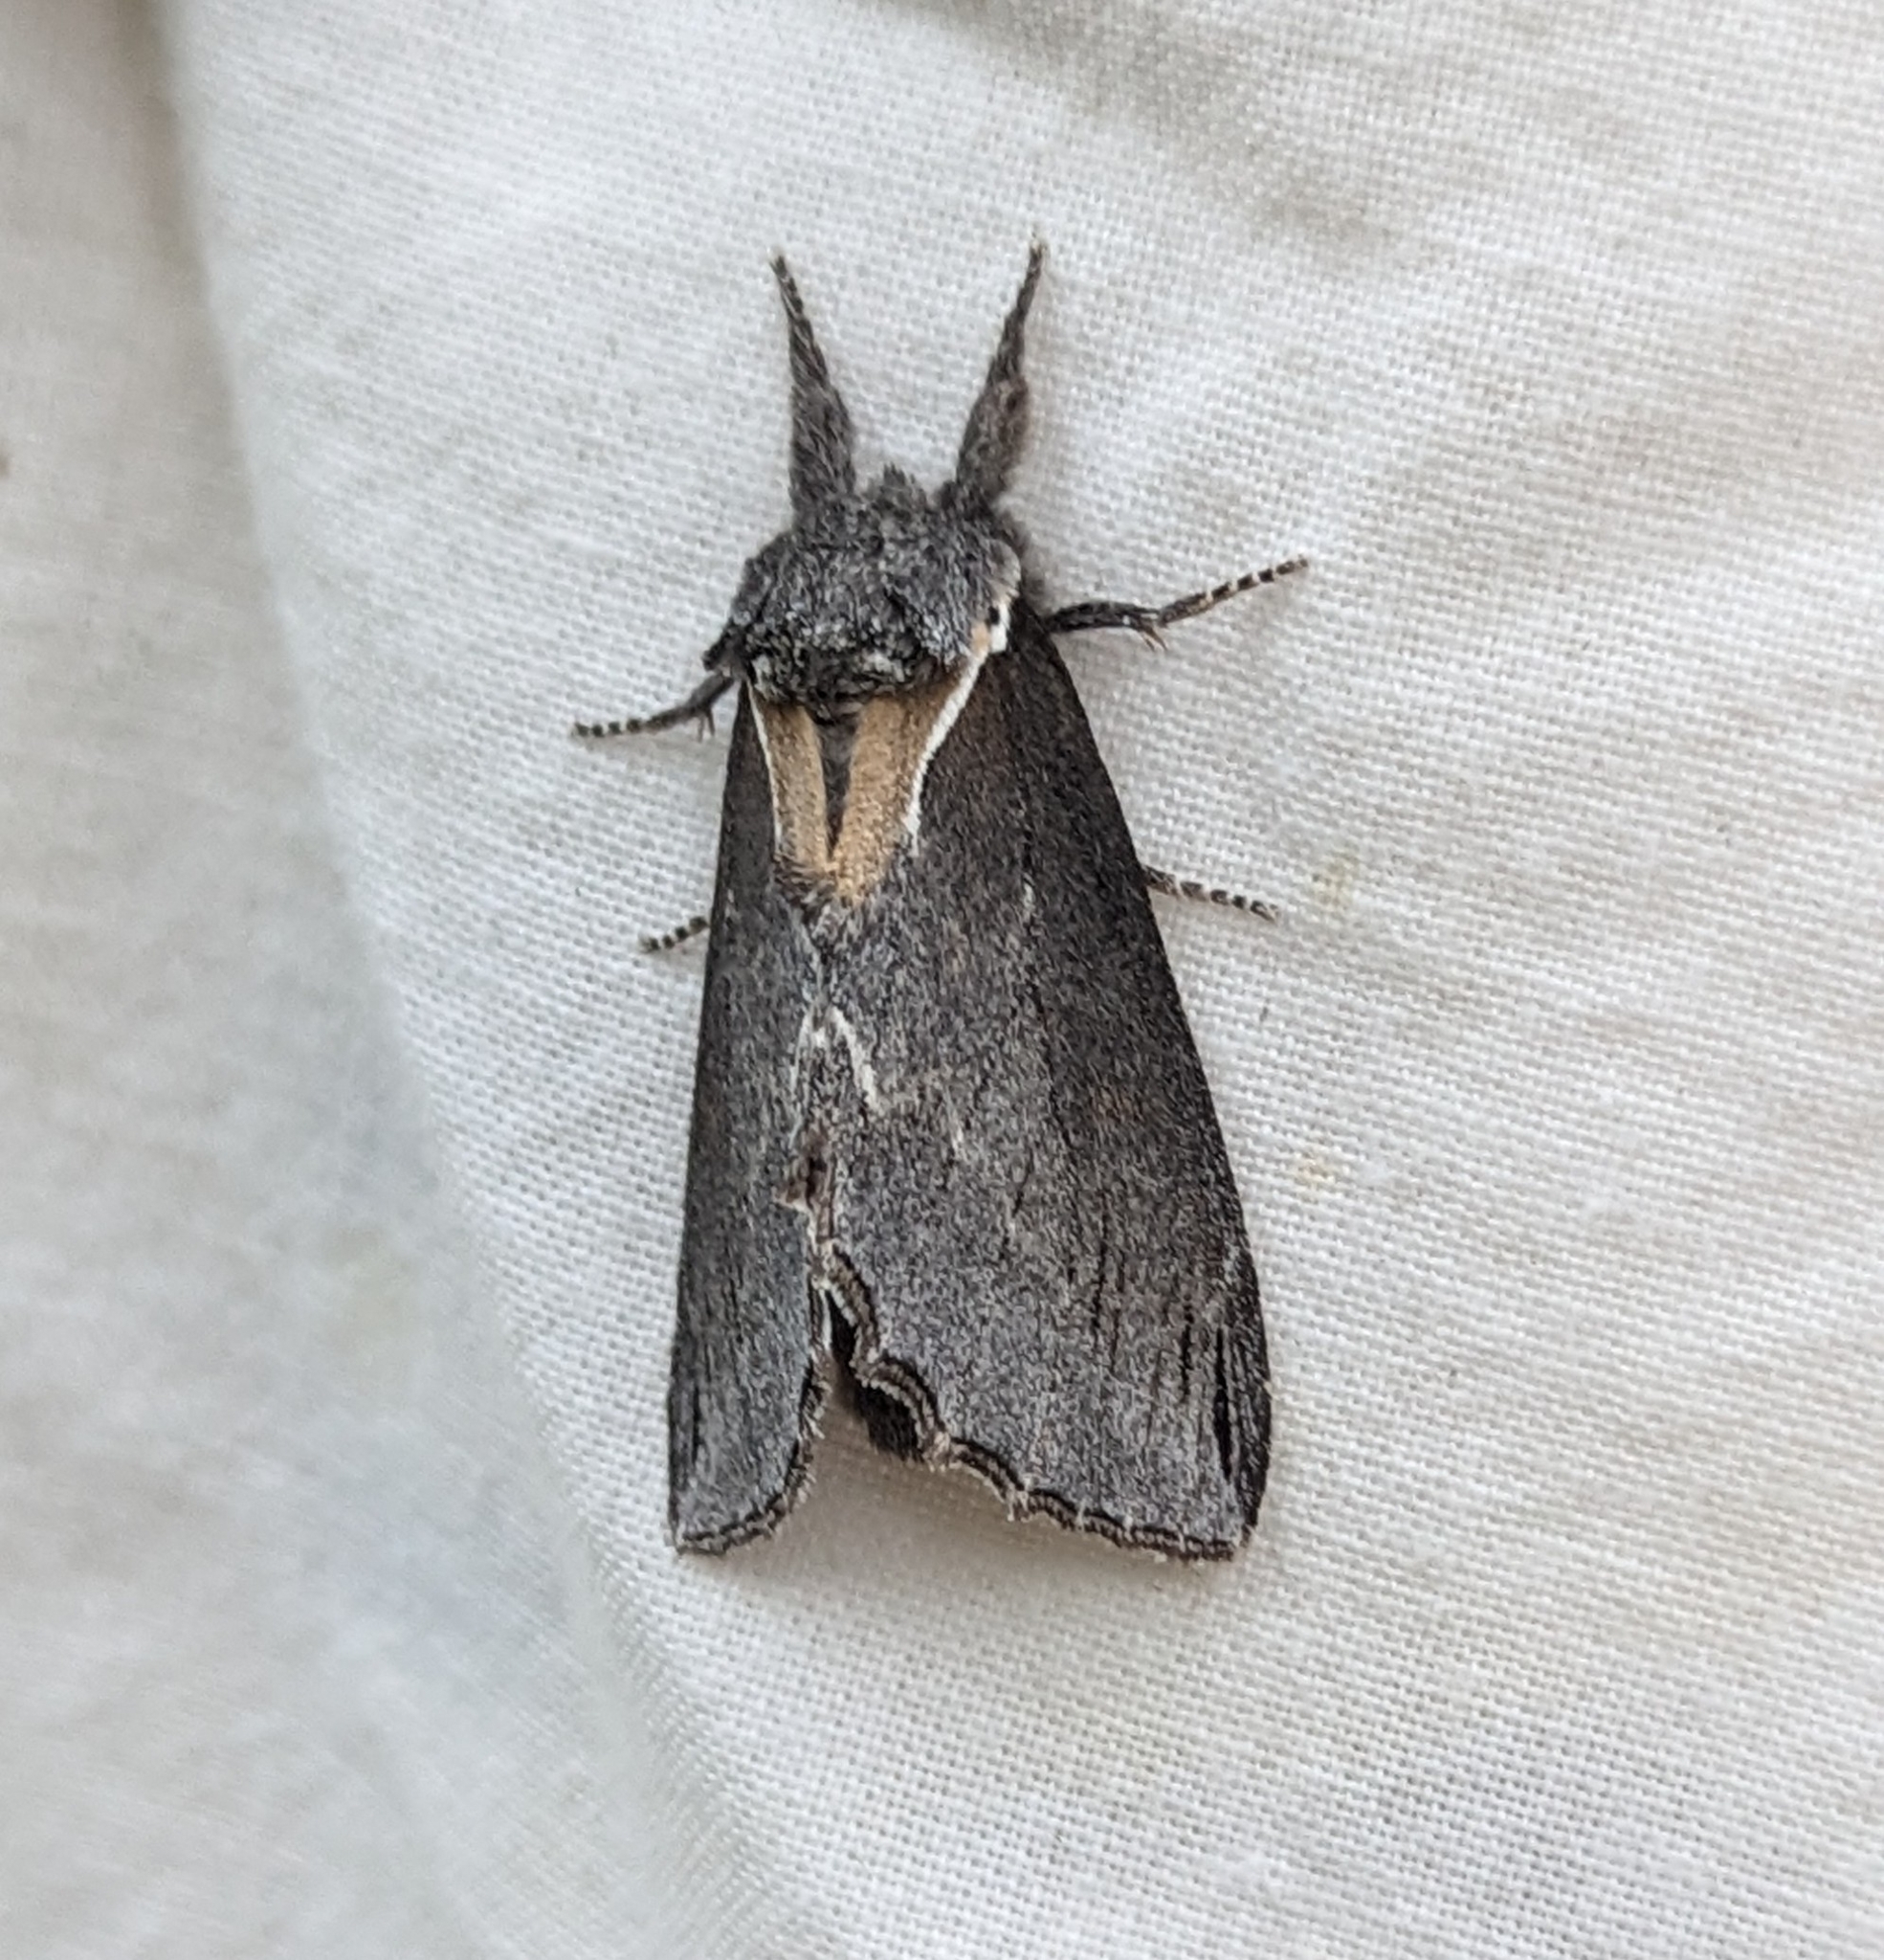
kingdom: Animalia
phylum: Arthropoda
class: Insecta
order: Lepidoptera
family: Notodontidae
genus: Pheosidea
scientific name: Pheosidea elegans
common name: Elegant prominent
